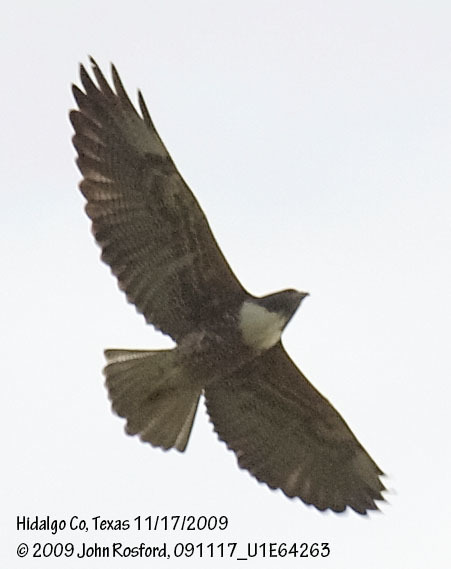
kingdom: Animalia
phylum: Chordata
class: Aves
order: Accipitriformes
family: Accipitridae
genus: Buteo
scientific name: Buteo albicaudatus
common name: White-tailed hawk
